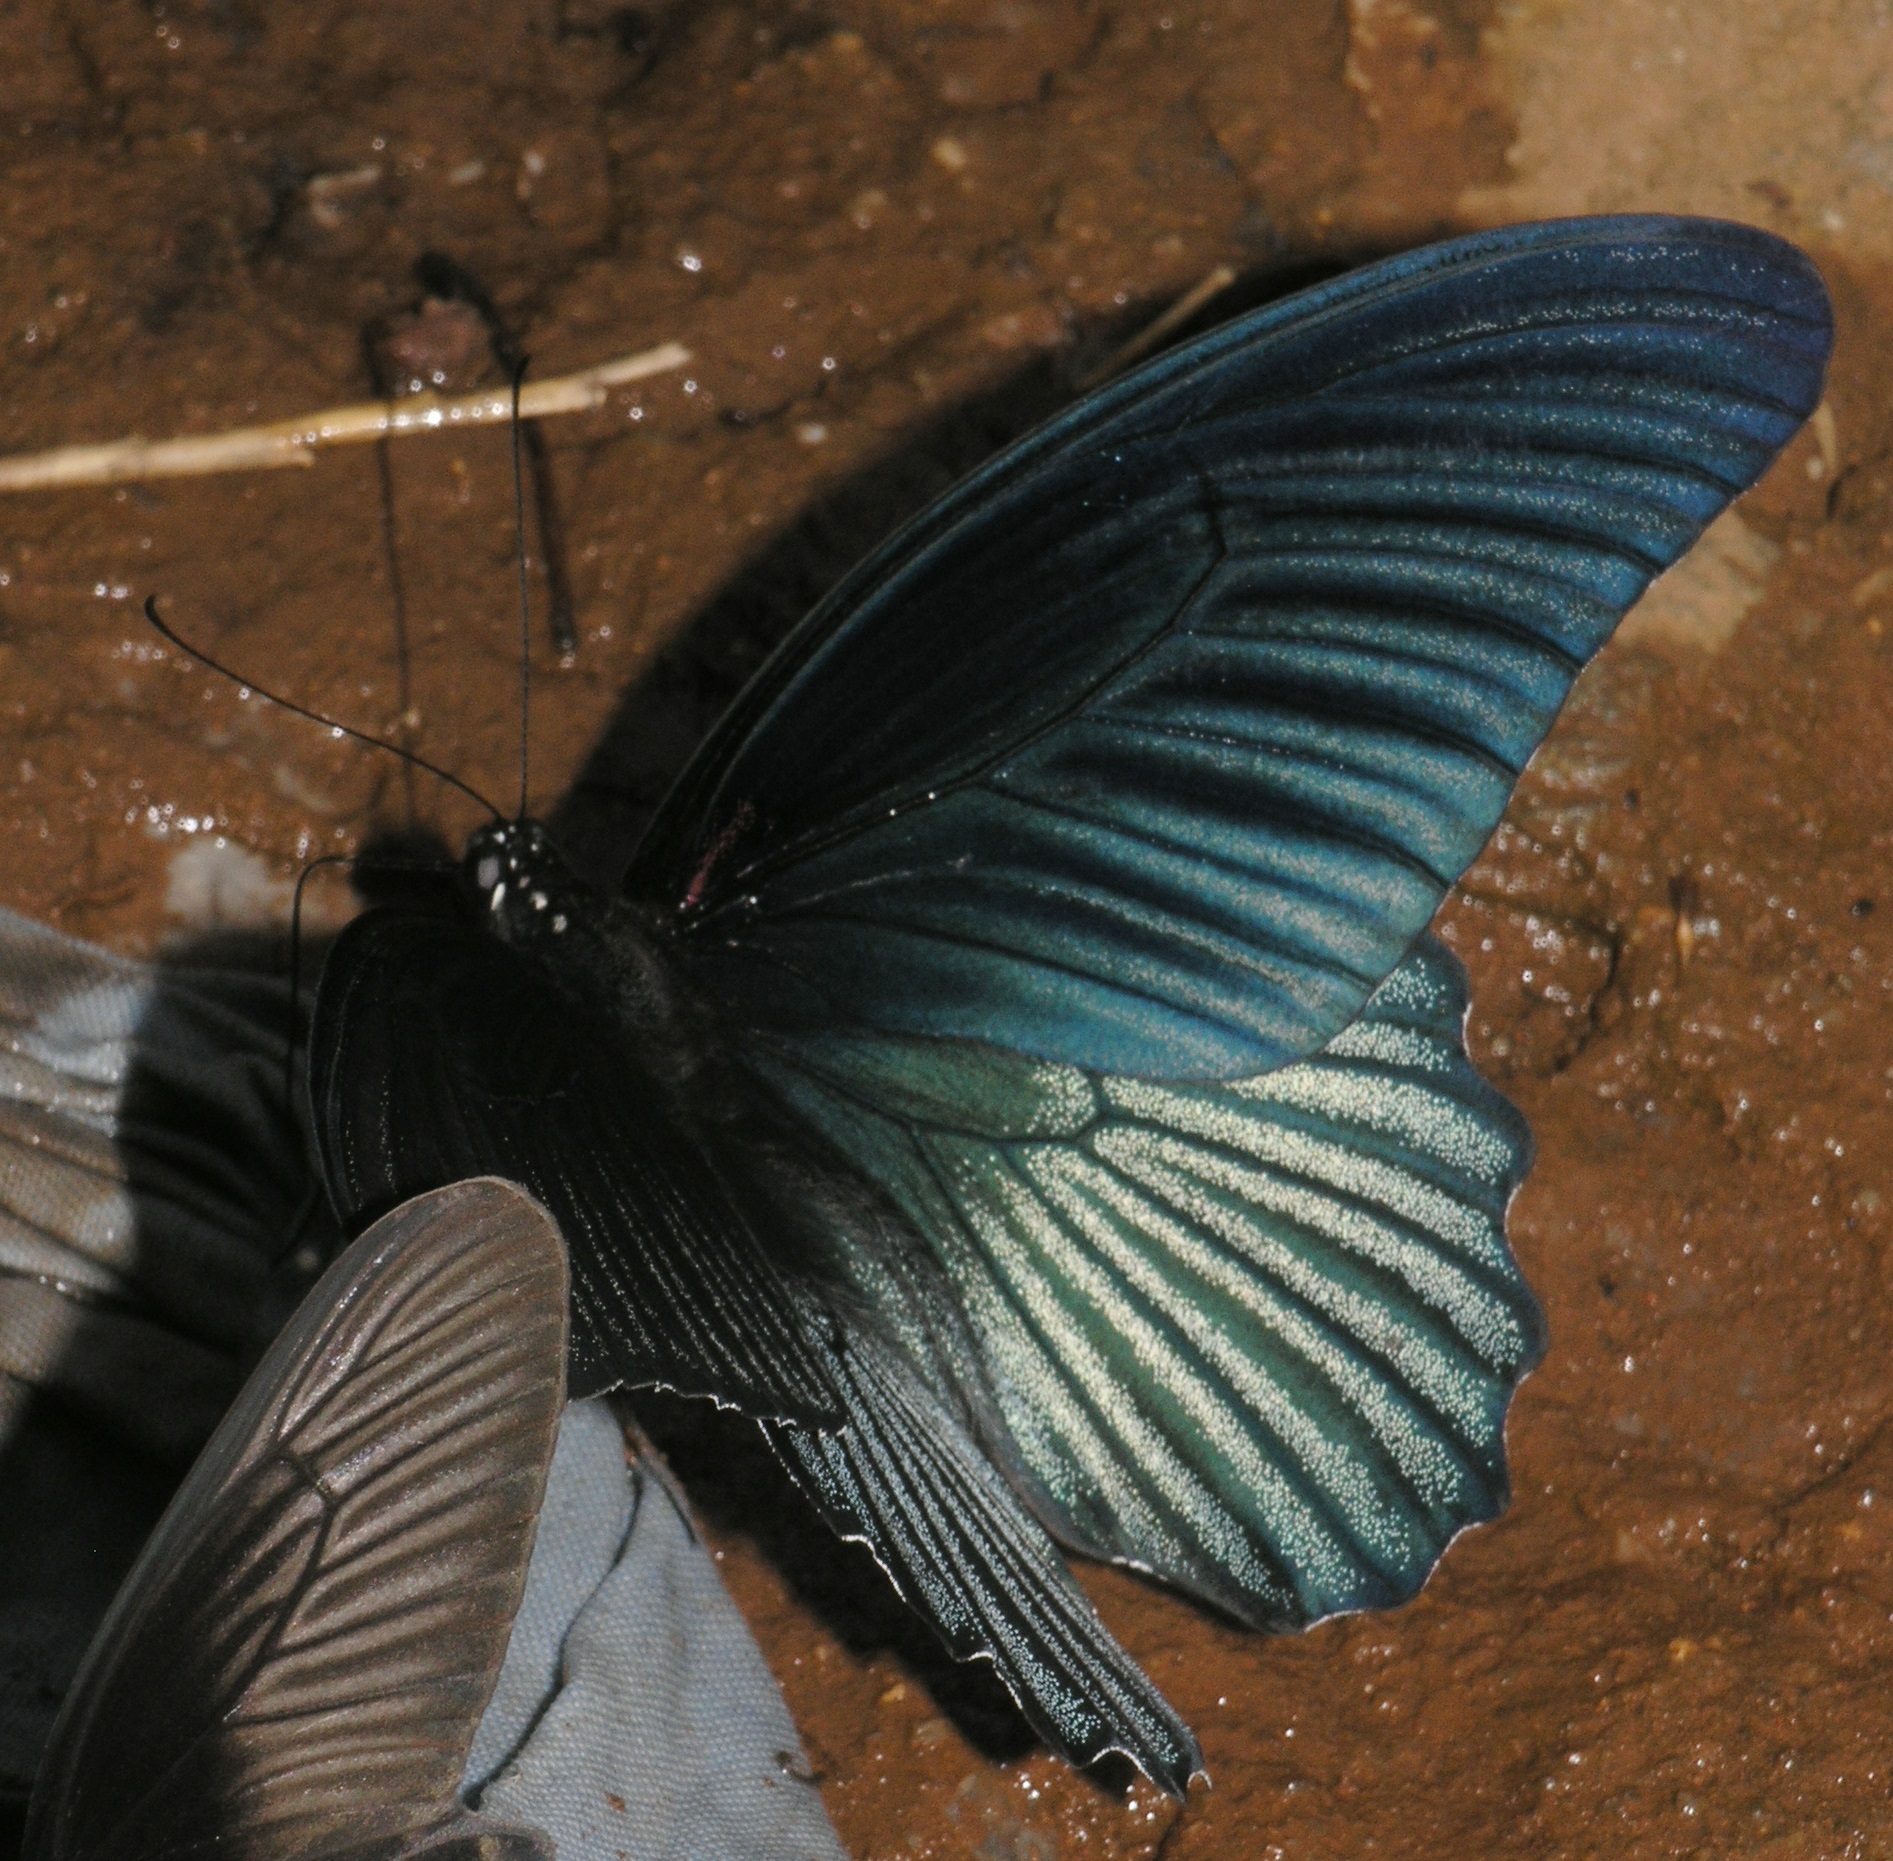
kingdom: Animalia
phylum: Arthropoda
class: Insecta
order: Lepidoptera
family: Papilionidae
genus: Papilio
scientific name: Papilio memnon
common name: Great mormon
